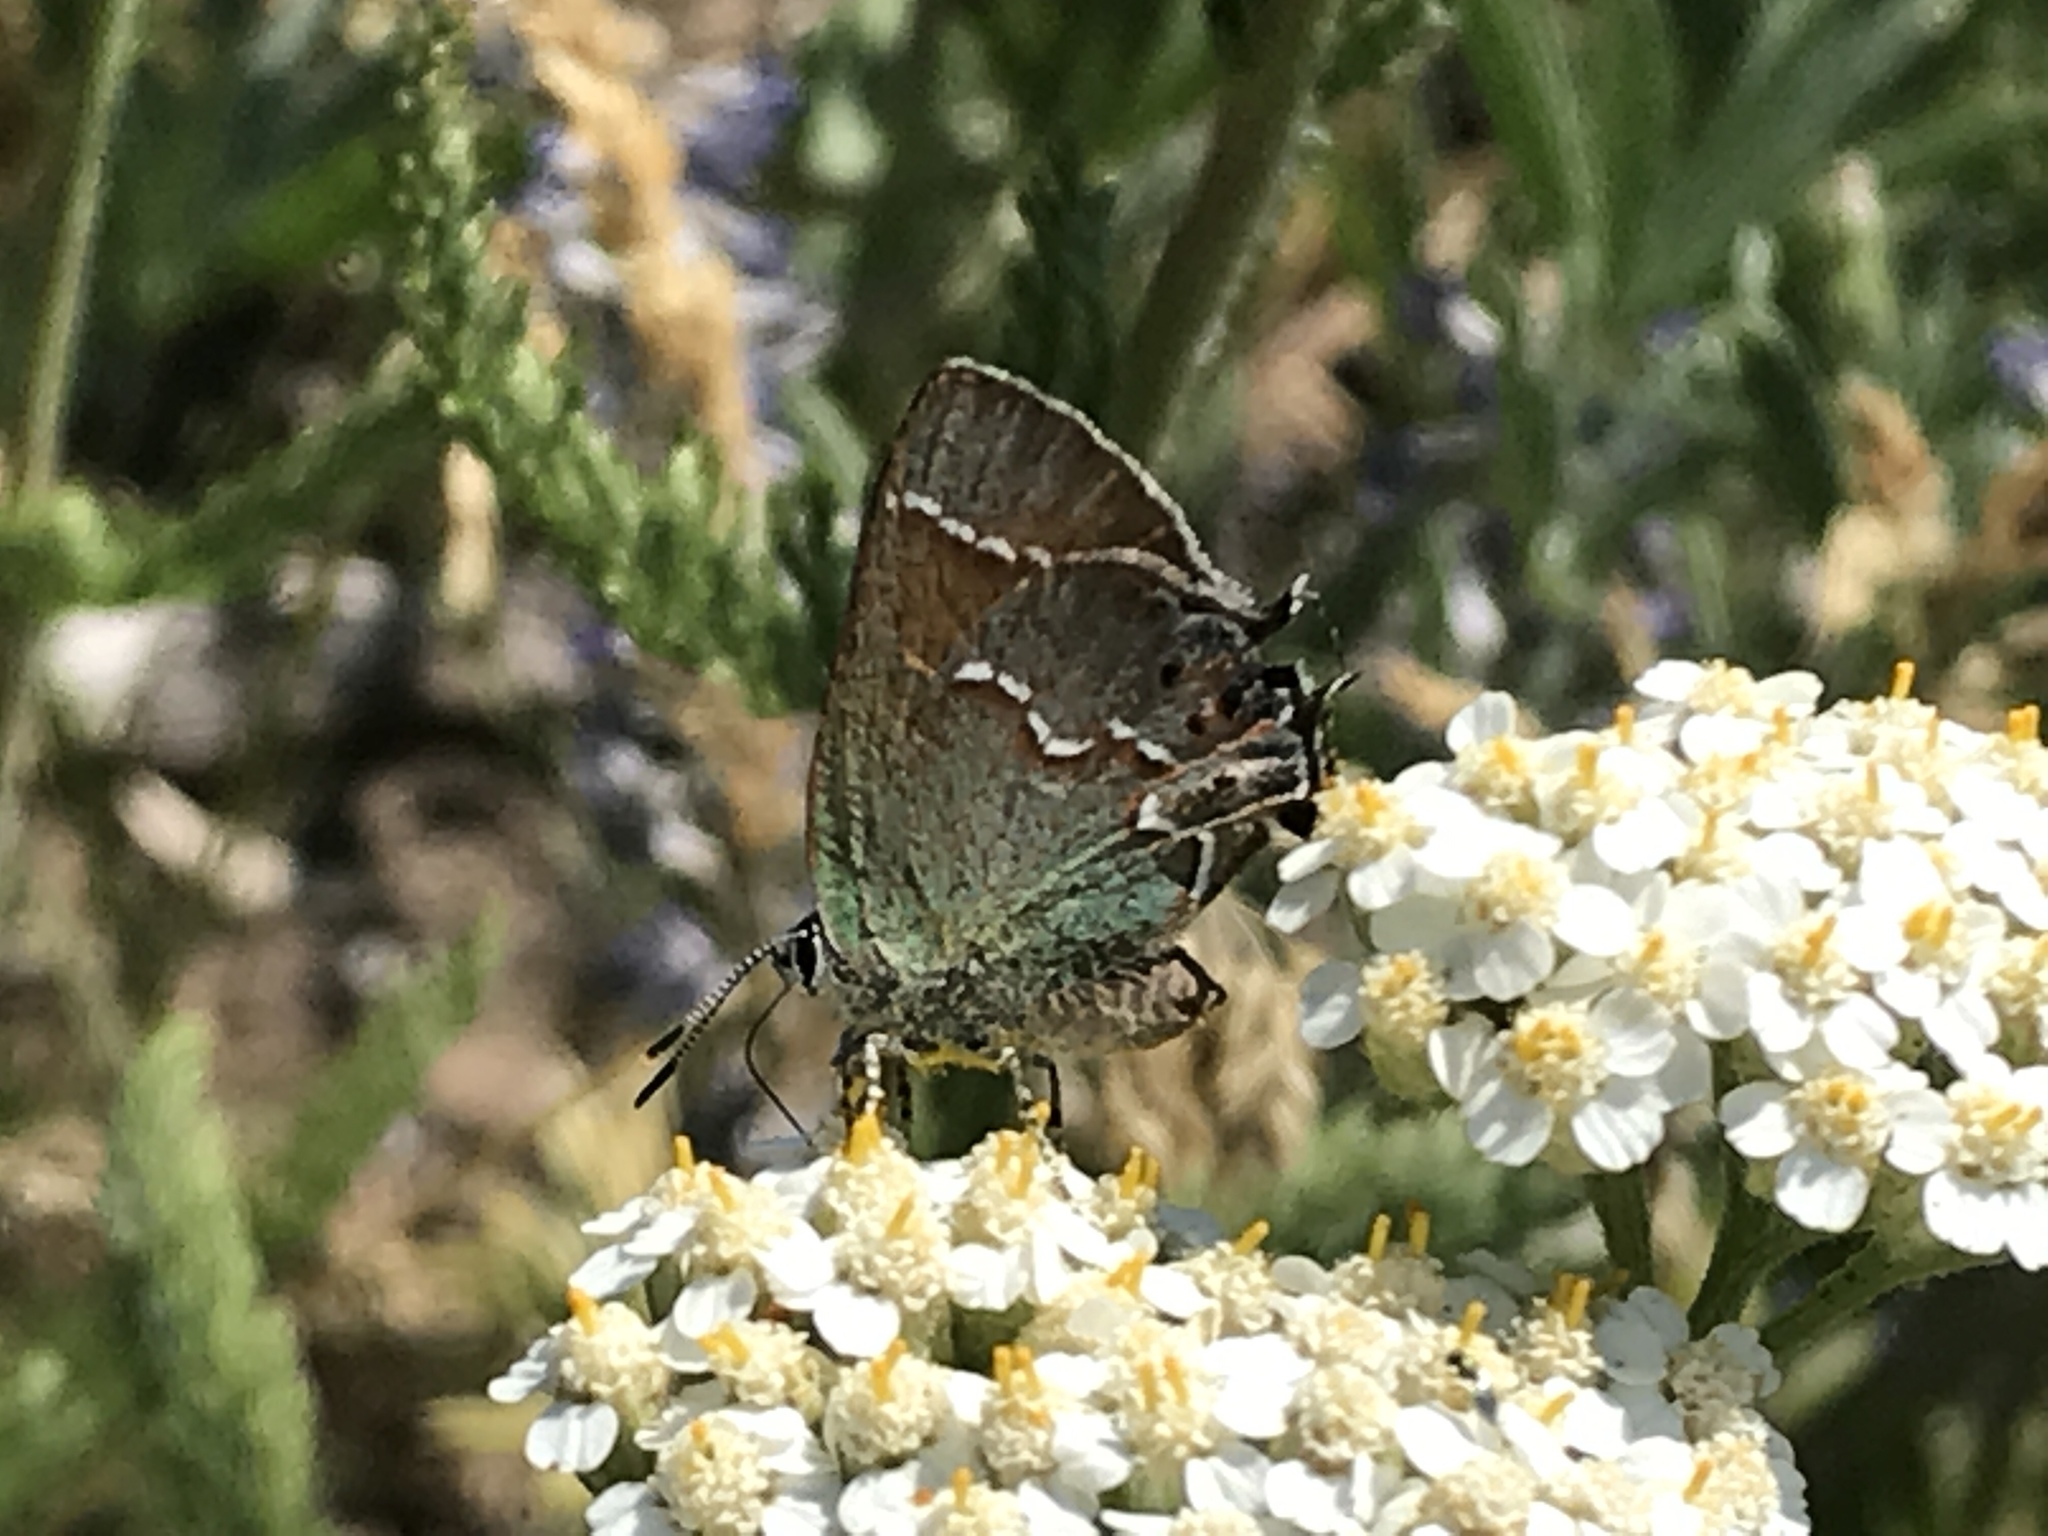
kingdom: Animalia
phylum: Arthropoda
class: Insecta
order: Lepidoptera
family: Lycaenidae
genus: Mitoura
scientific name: Mitoura gryneus
